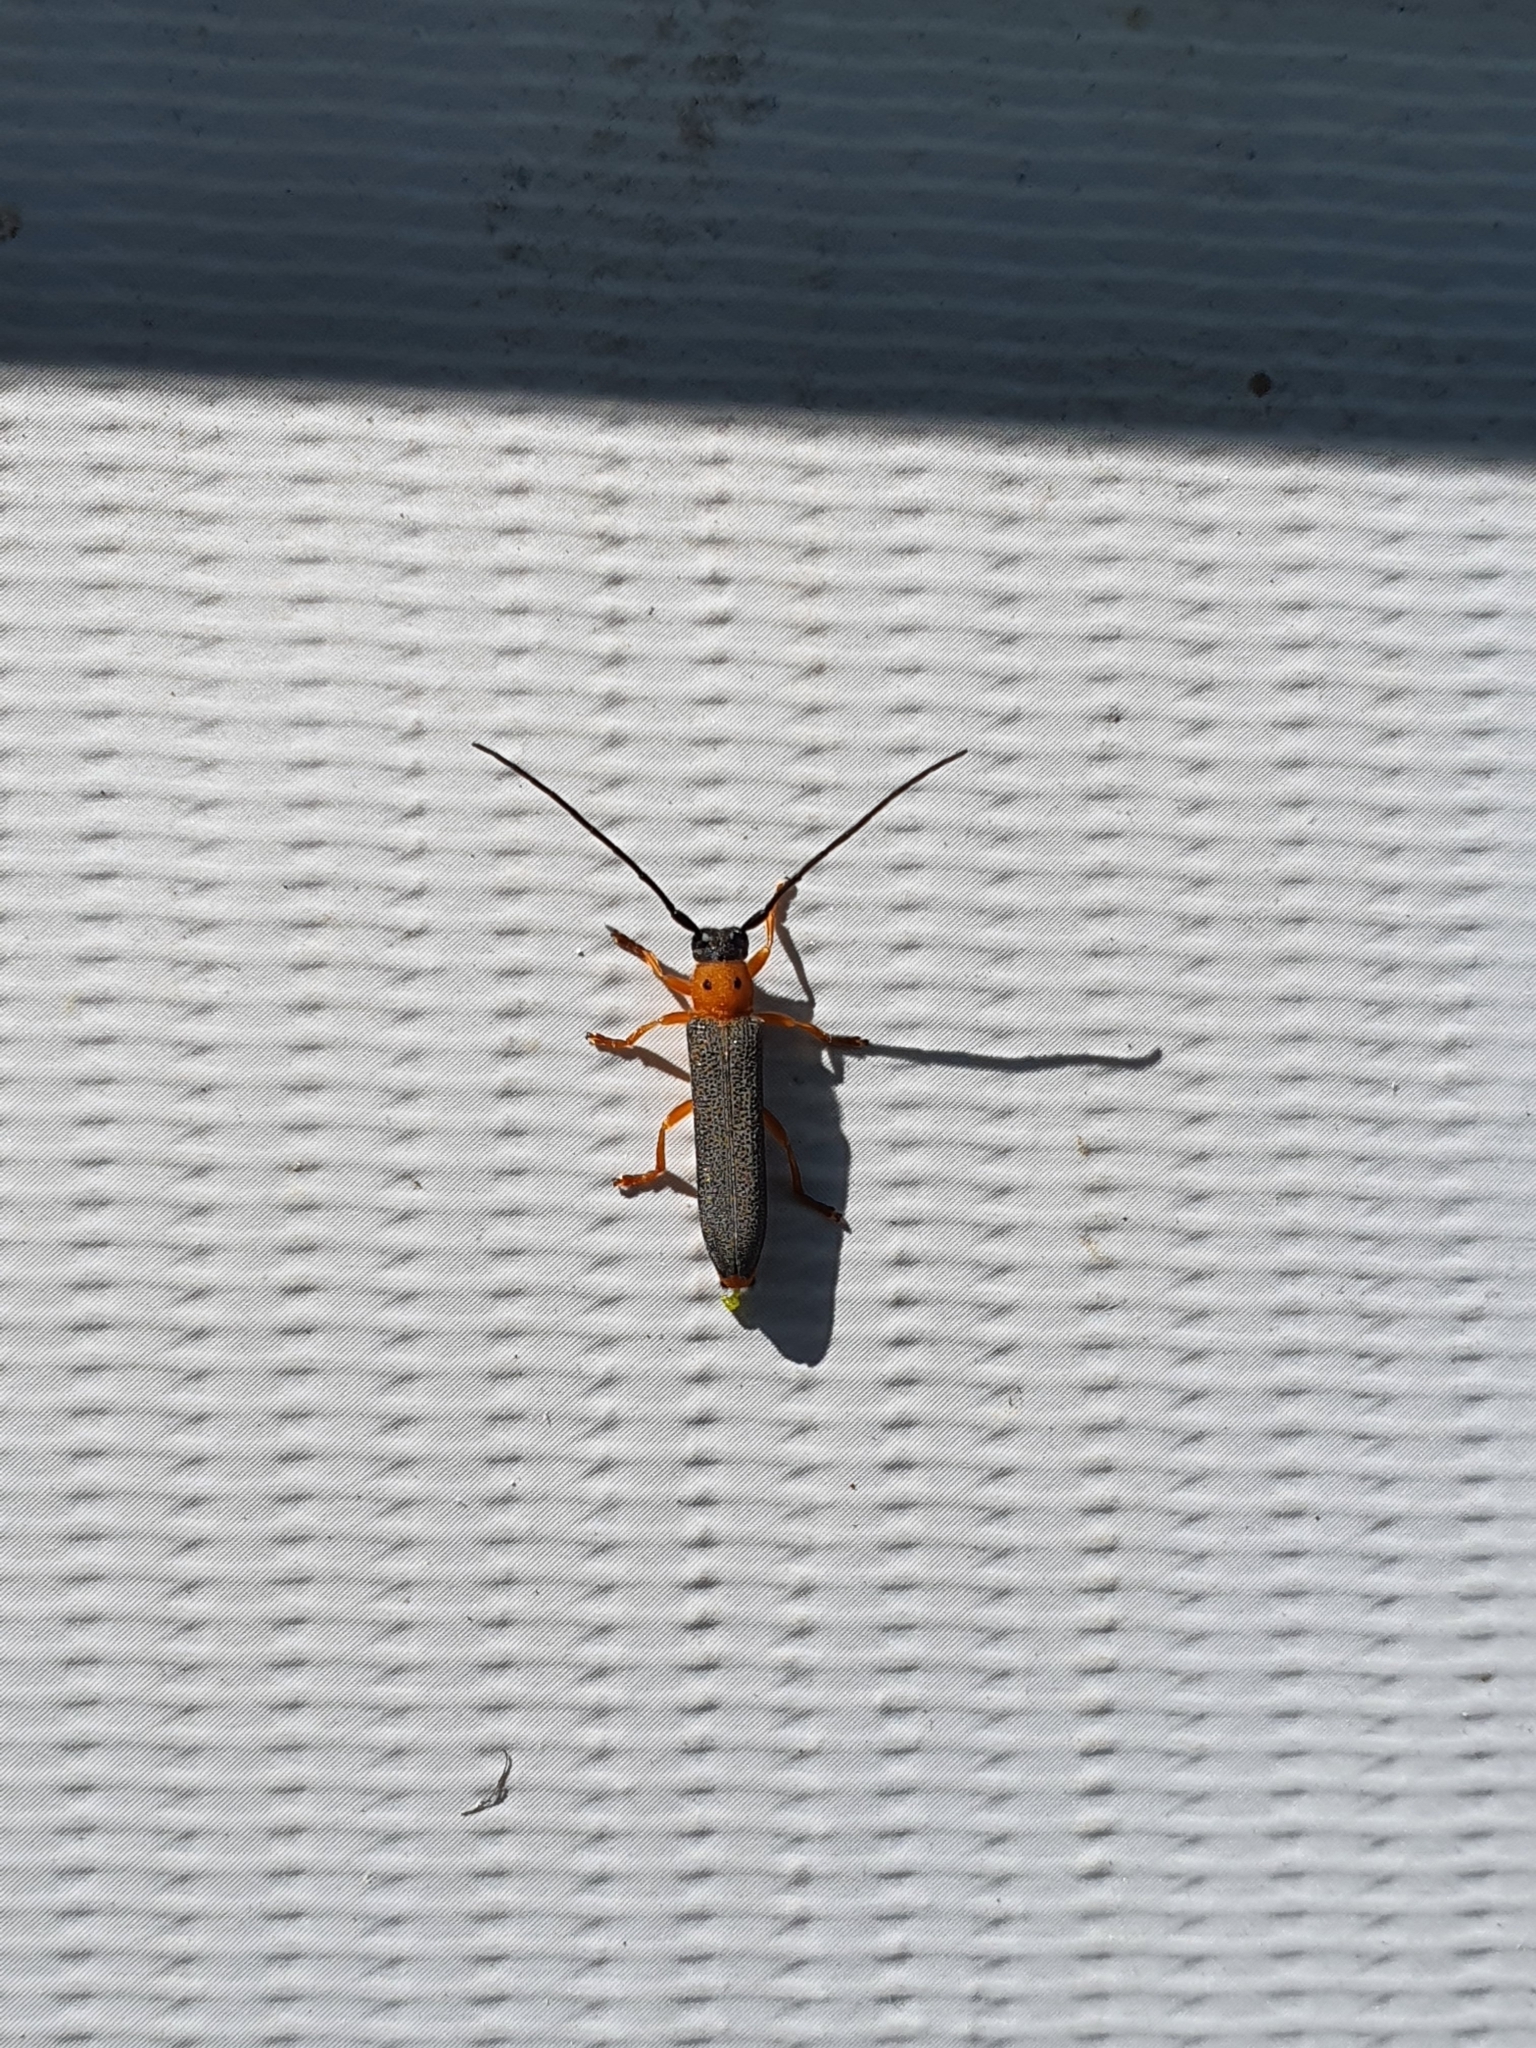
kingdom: Animalia
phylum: Arthropoda
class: Insecta
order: Coleoptera
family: Cerambycidae
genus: Oberea
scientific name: Oberea oculata
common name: Eyed longhorn beetle
